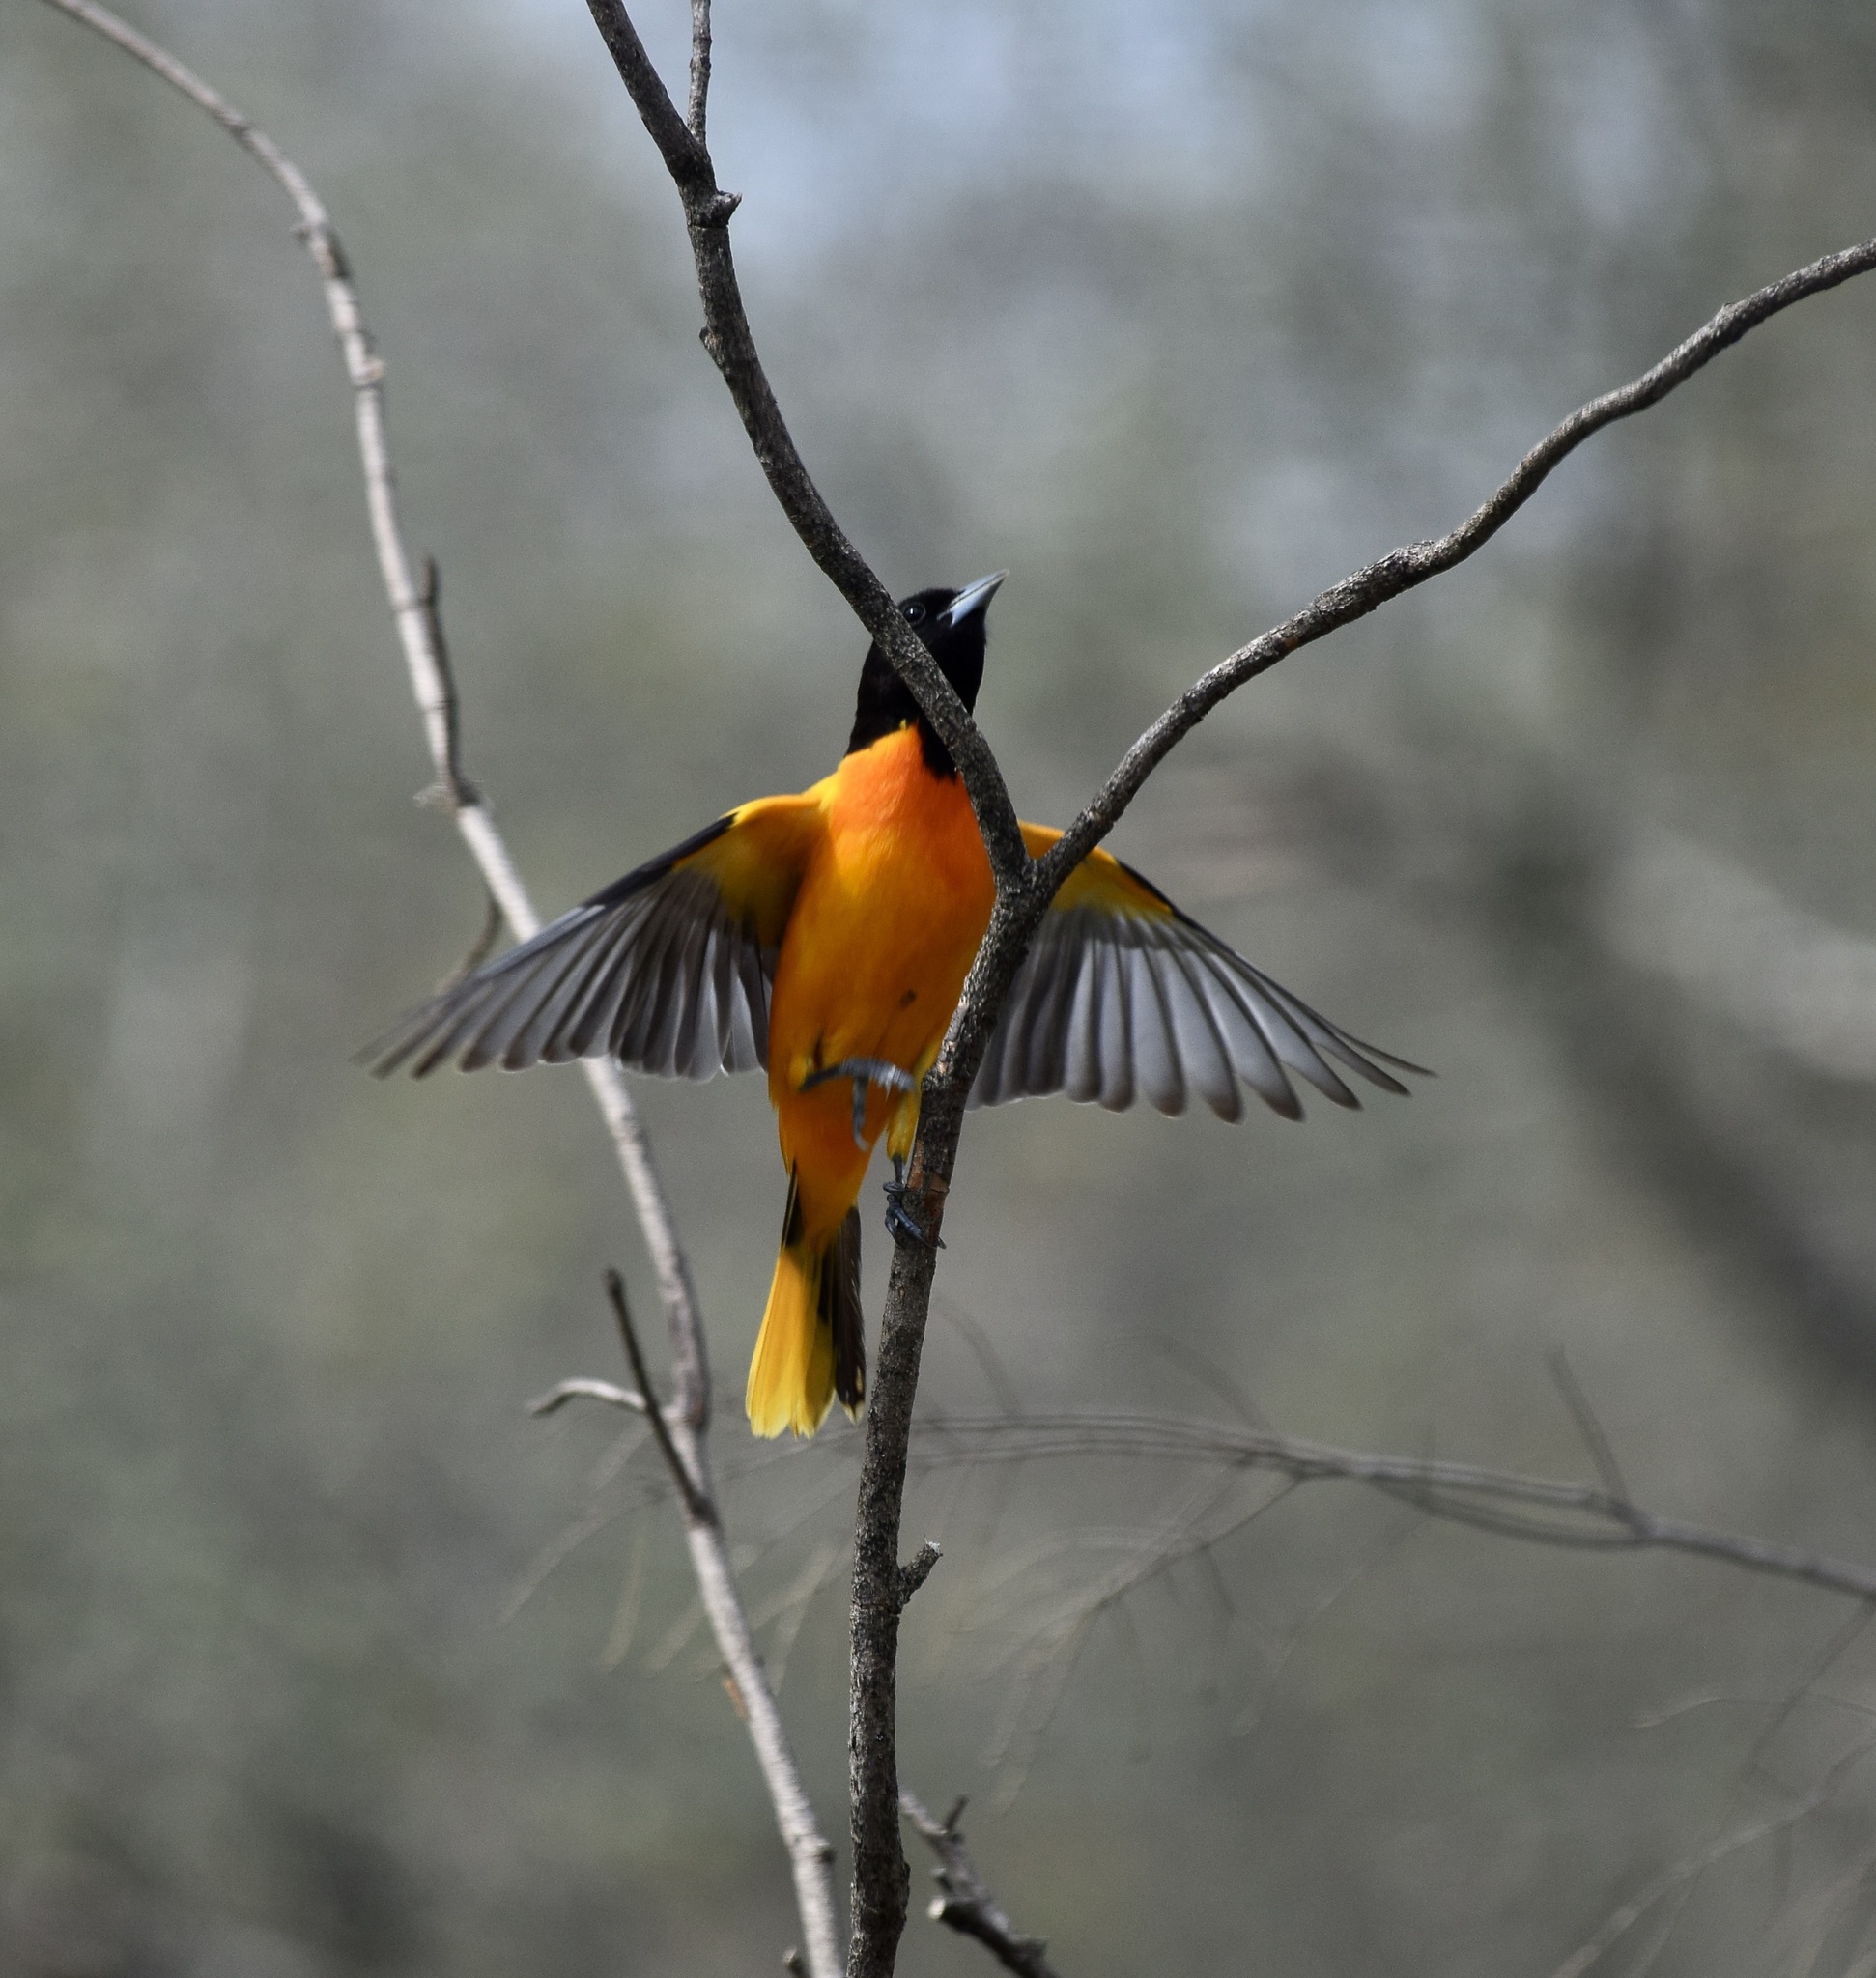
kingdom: Animalia
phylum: Chordata
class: Aves
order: Passeriformes
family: Icteridae
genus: Icterus
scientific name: Icterus galbula
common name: Baltimore oriole
